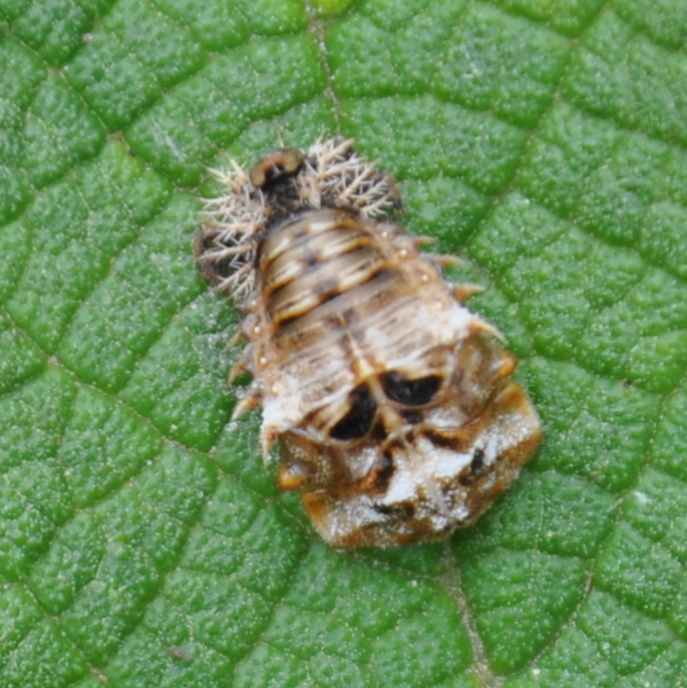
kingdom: Animalia
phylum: Arthropoda
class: Insecta
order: Coleoptera
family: Chrysomelidae
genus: Chlamydocassis
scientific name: Chlamydocassis laticollis
